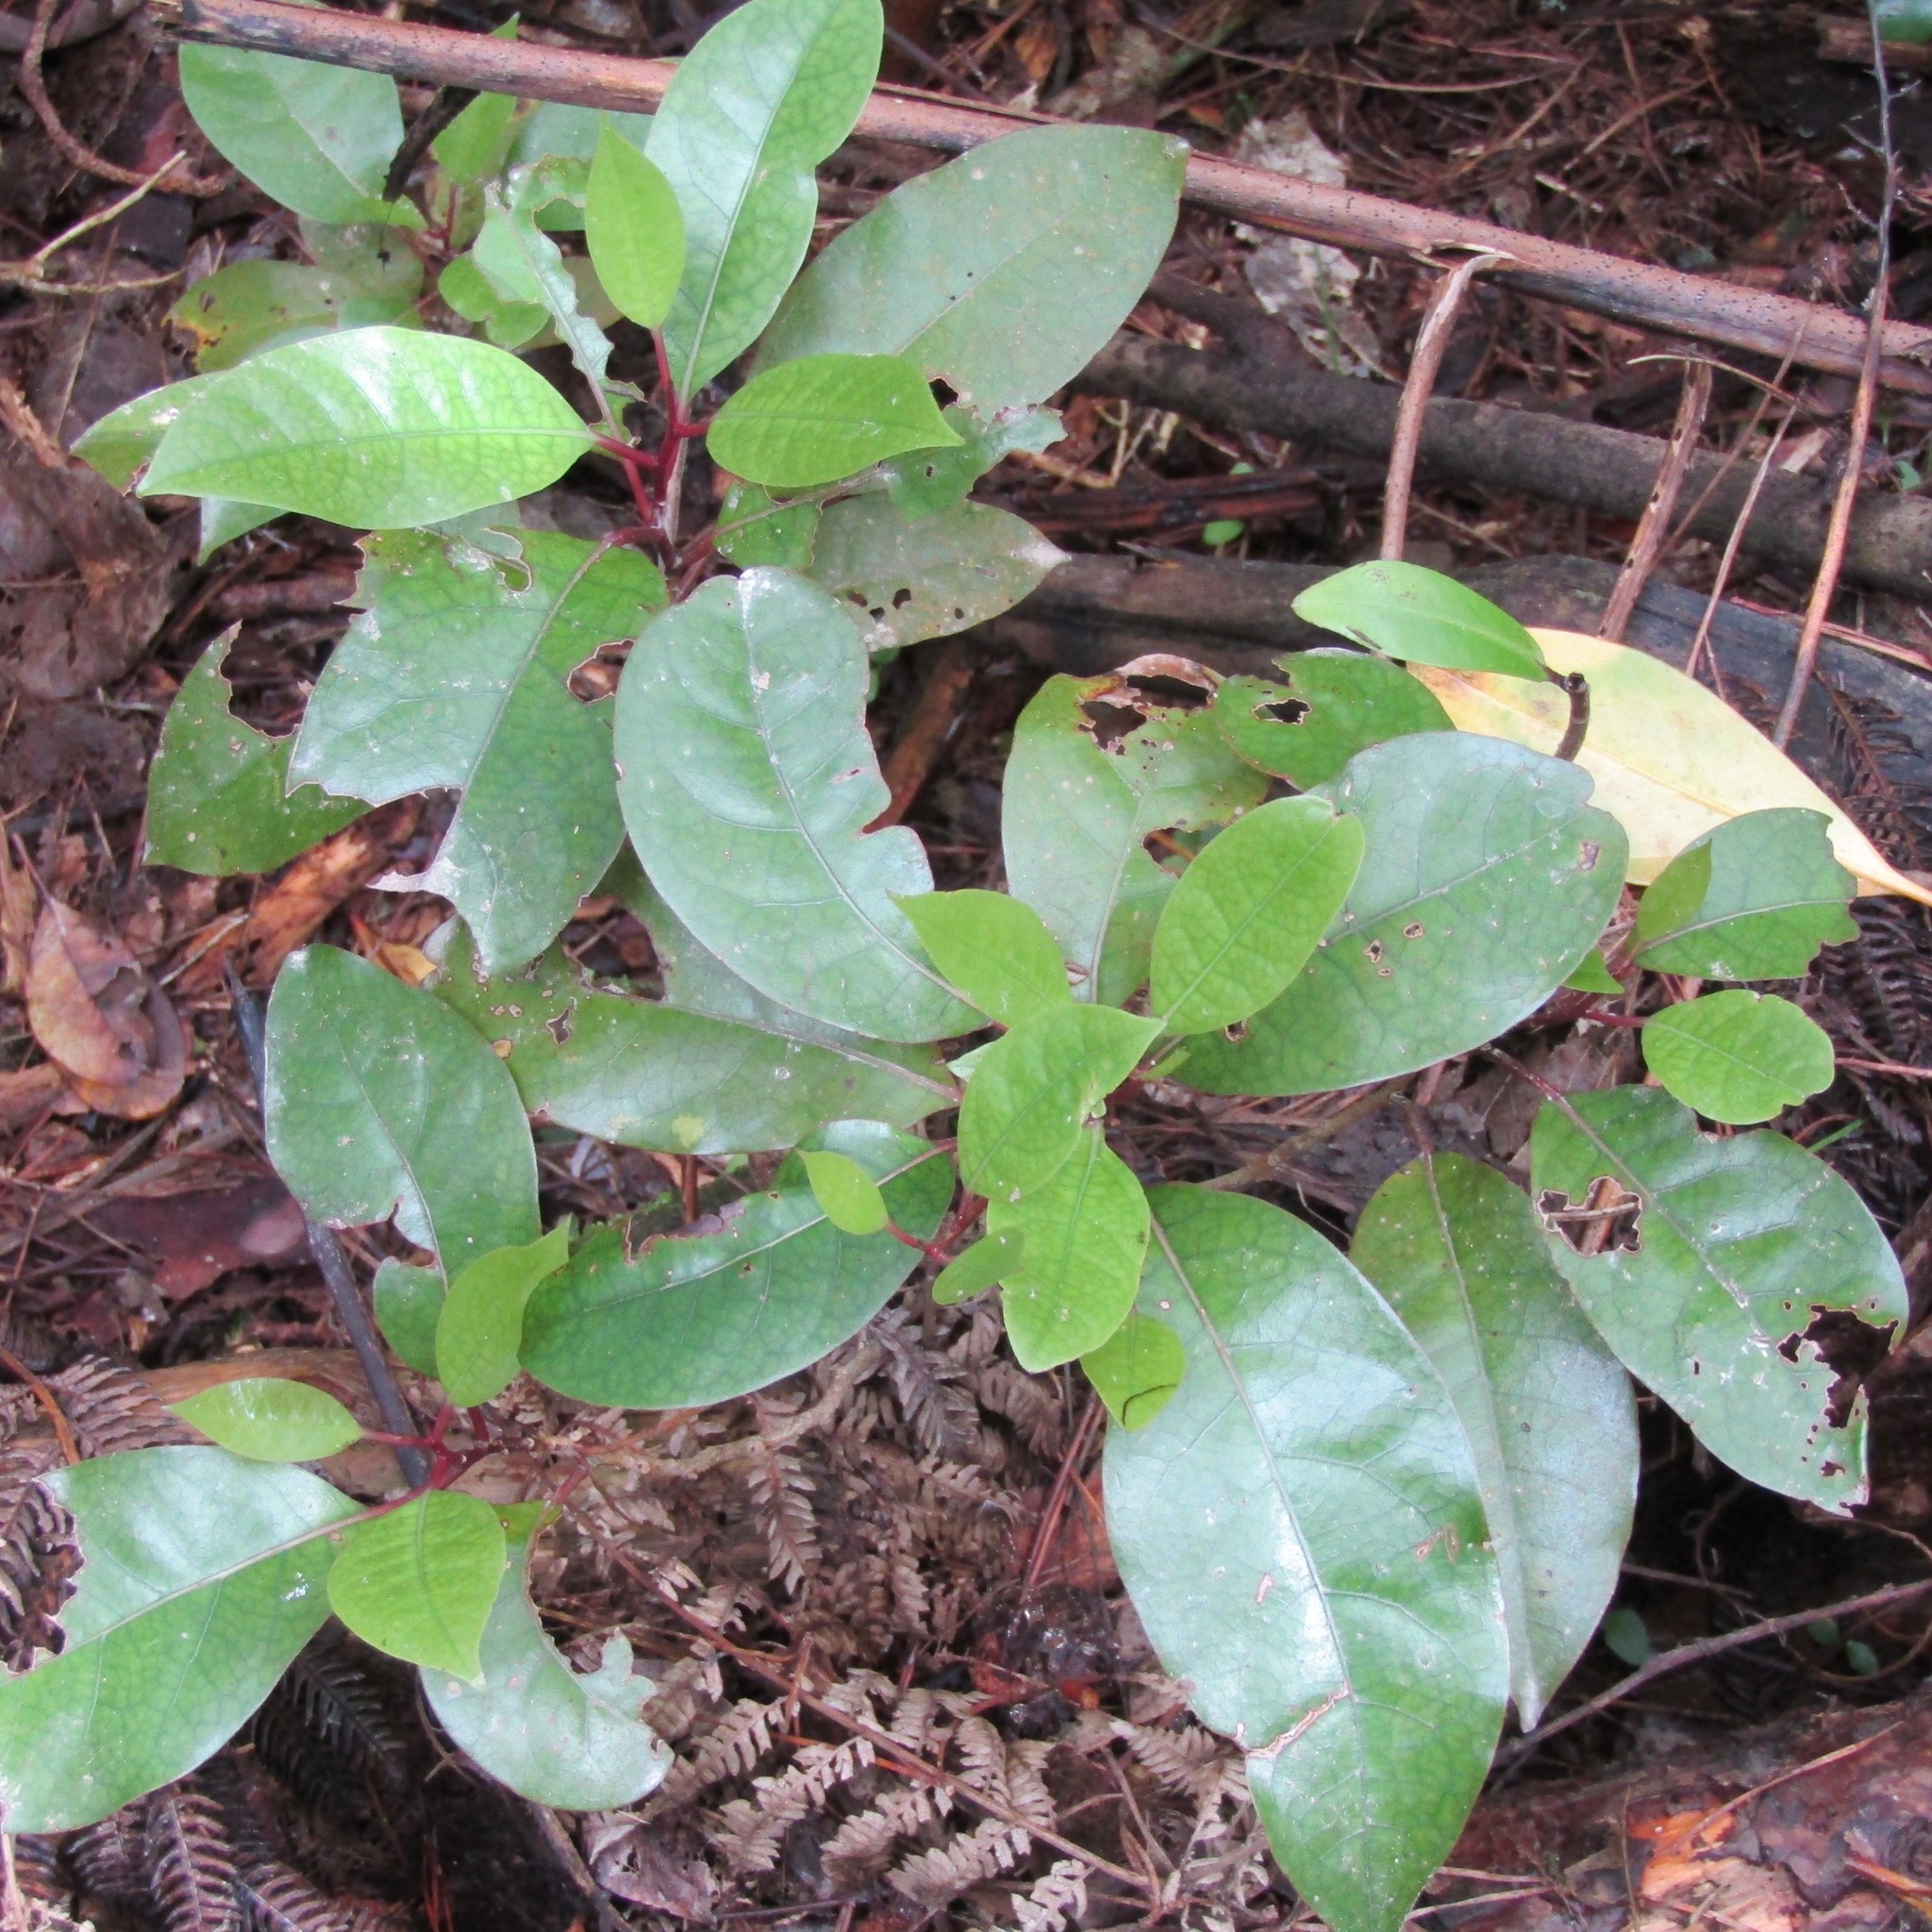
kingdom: Plantae
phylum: Tracheophyta
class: Magnoliopsida
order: Laurales
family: Lauraceae
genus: Litsea
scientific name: Litsea calicaris
